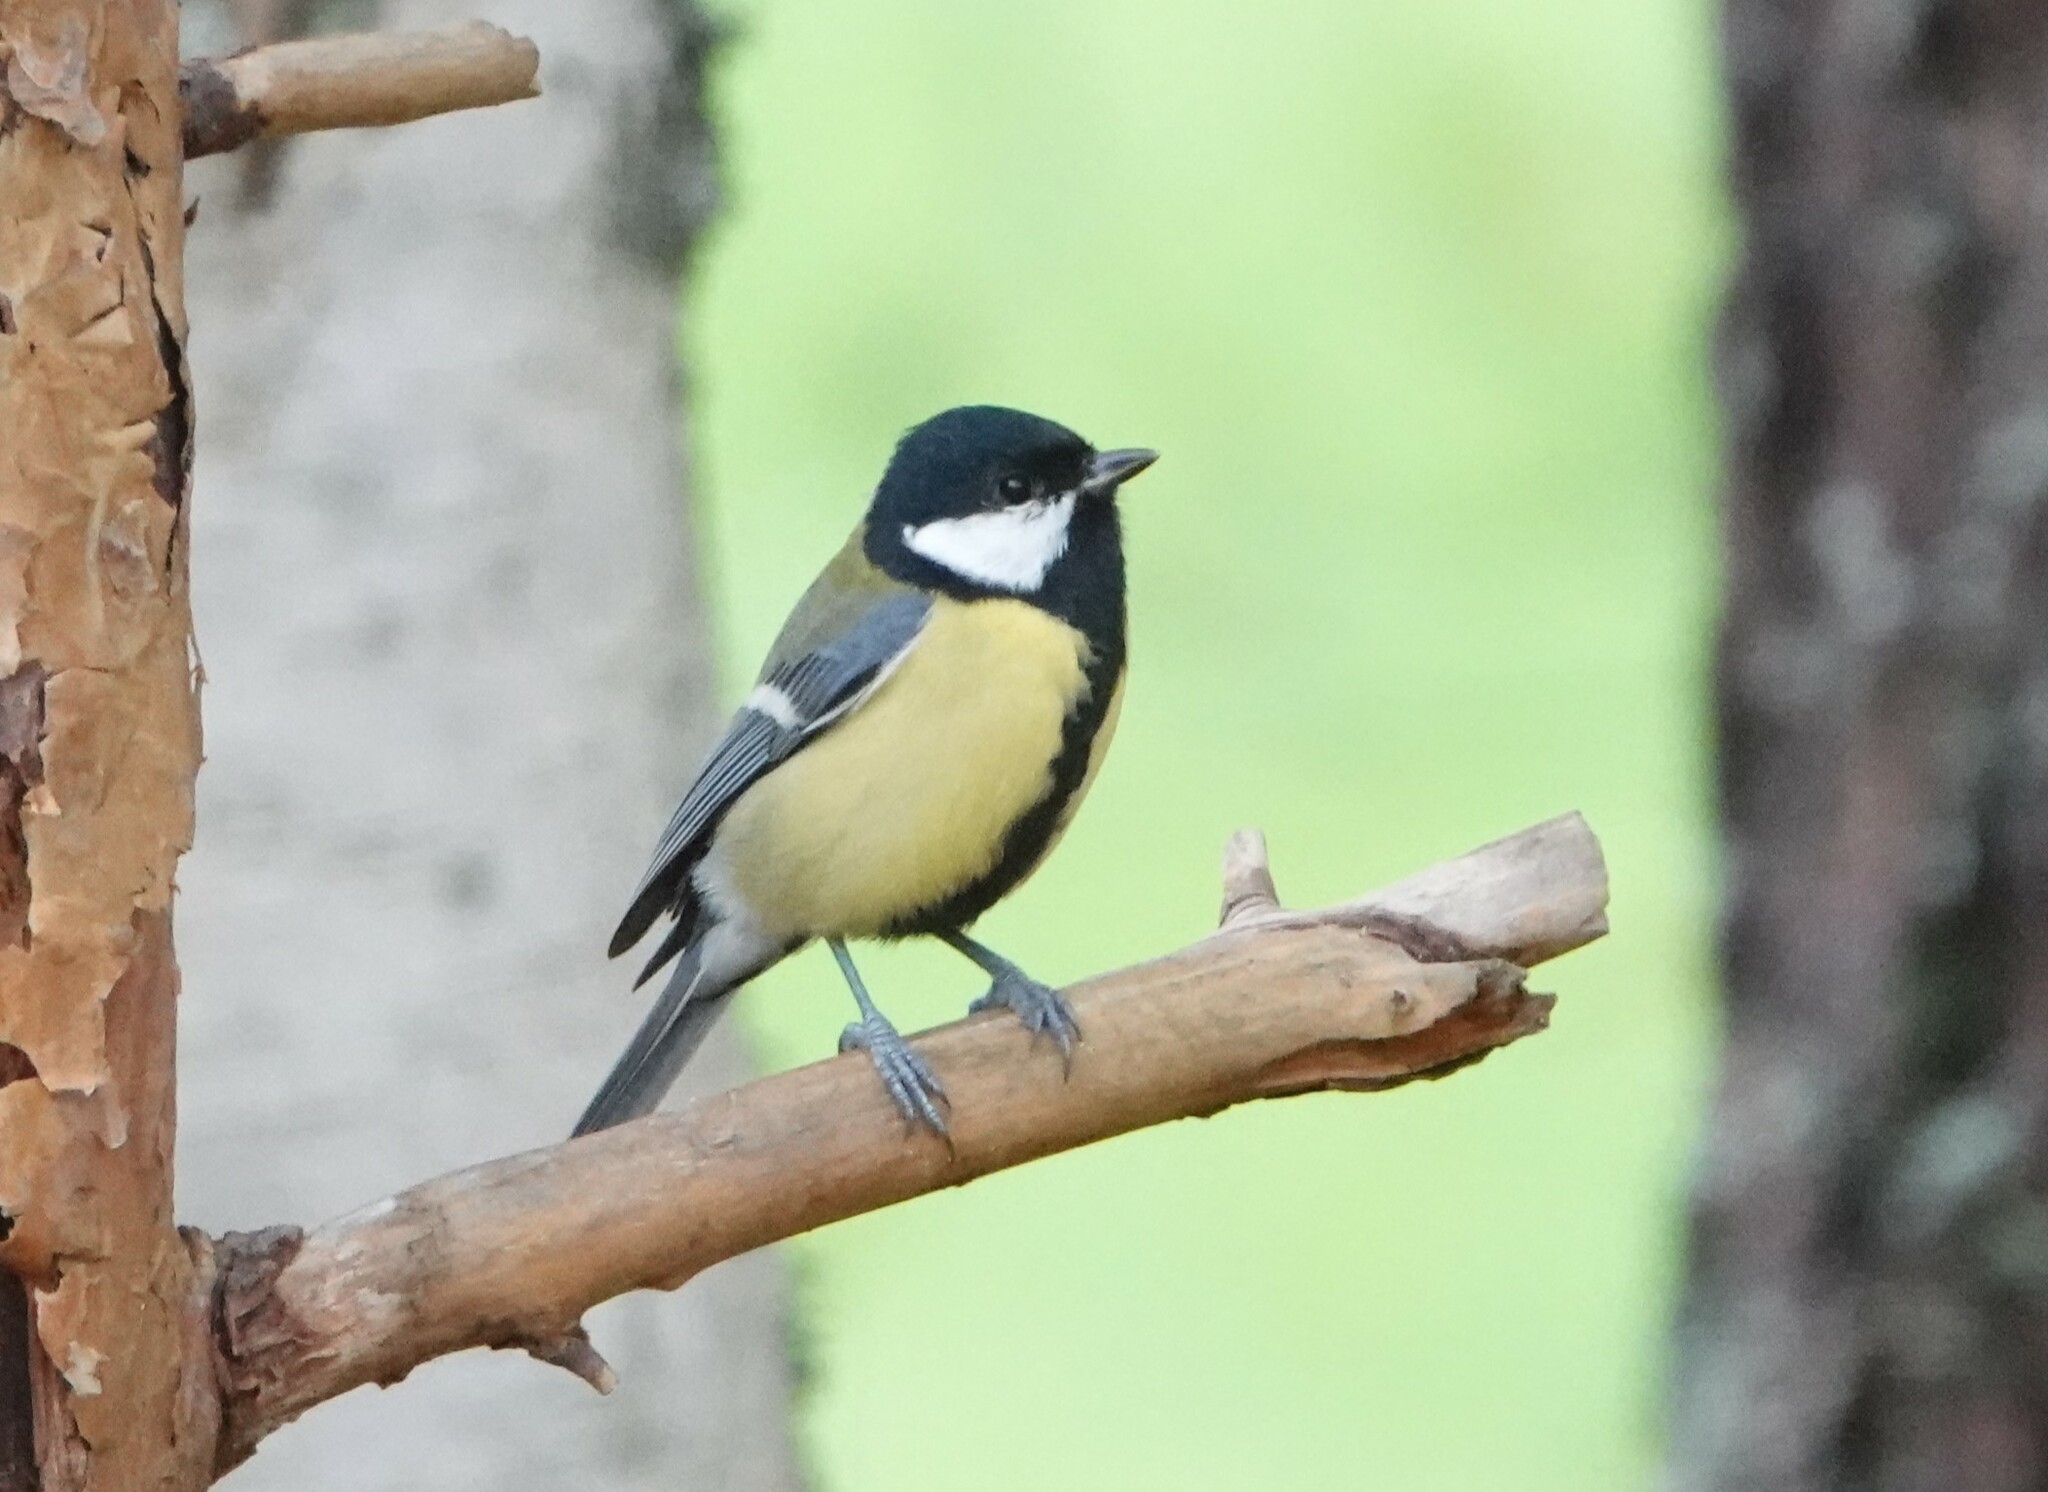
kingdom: Animalia
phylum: Chordata
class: Aves
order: Passeriformes
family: Paridae
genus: Parus
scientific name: Parus major
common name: Great tit
